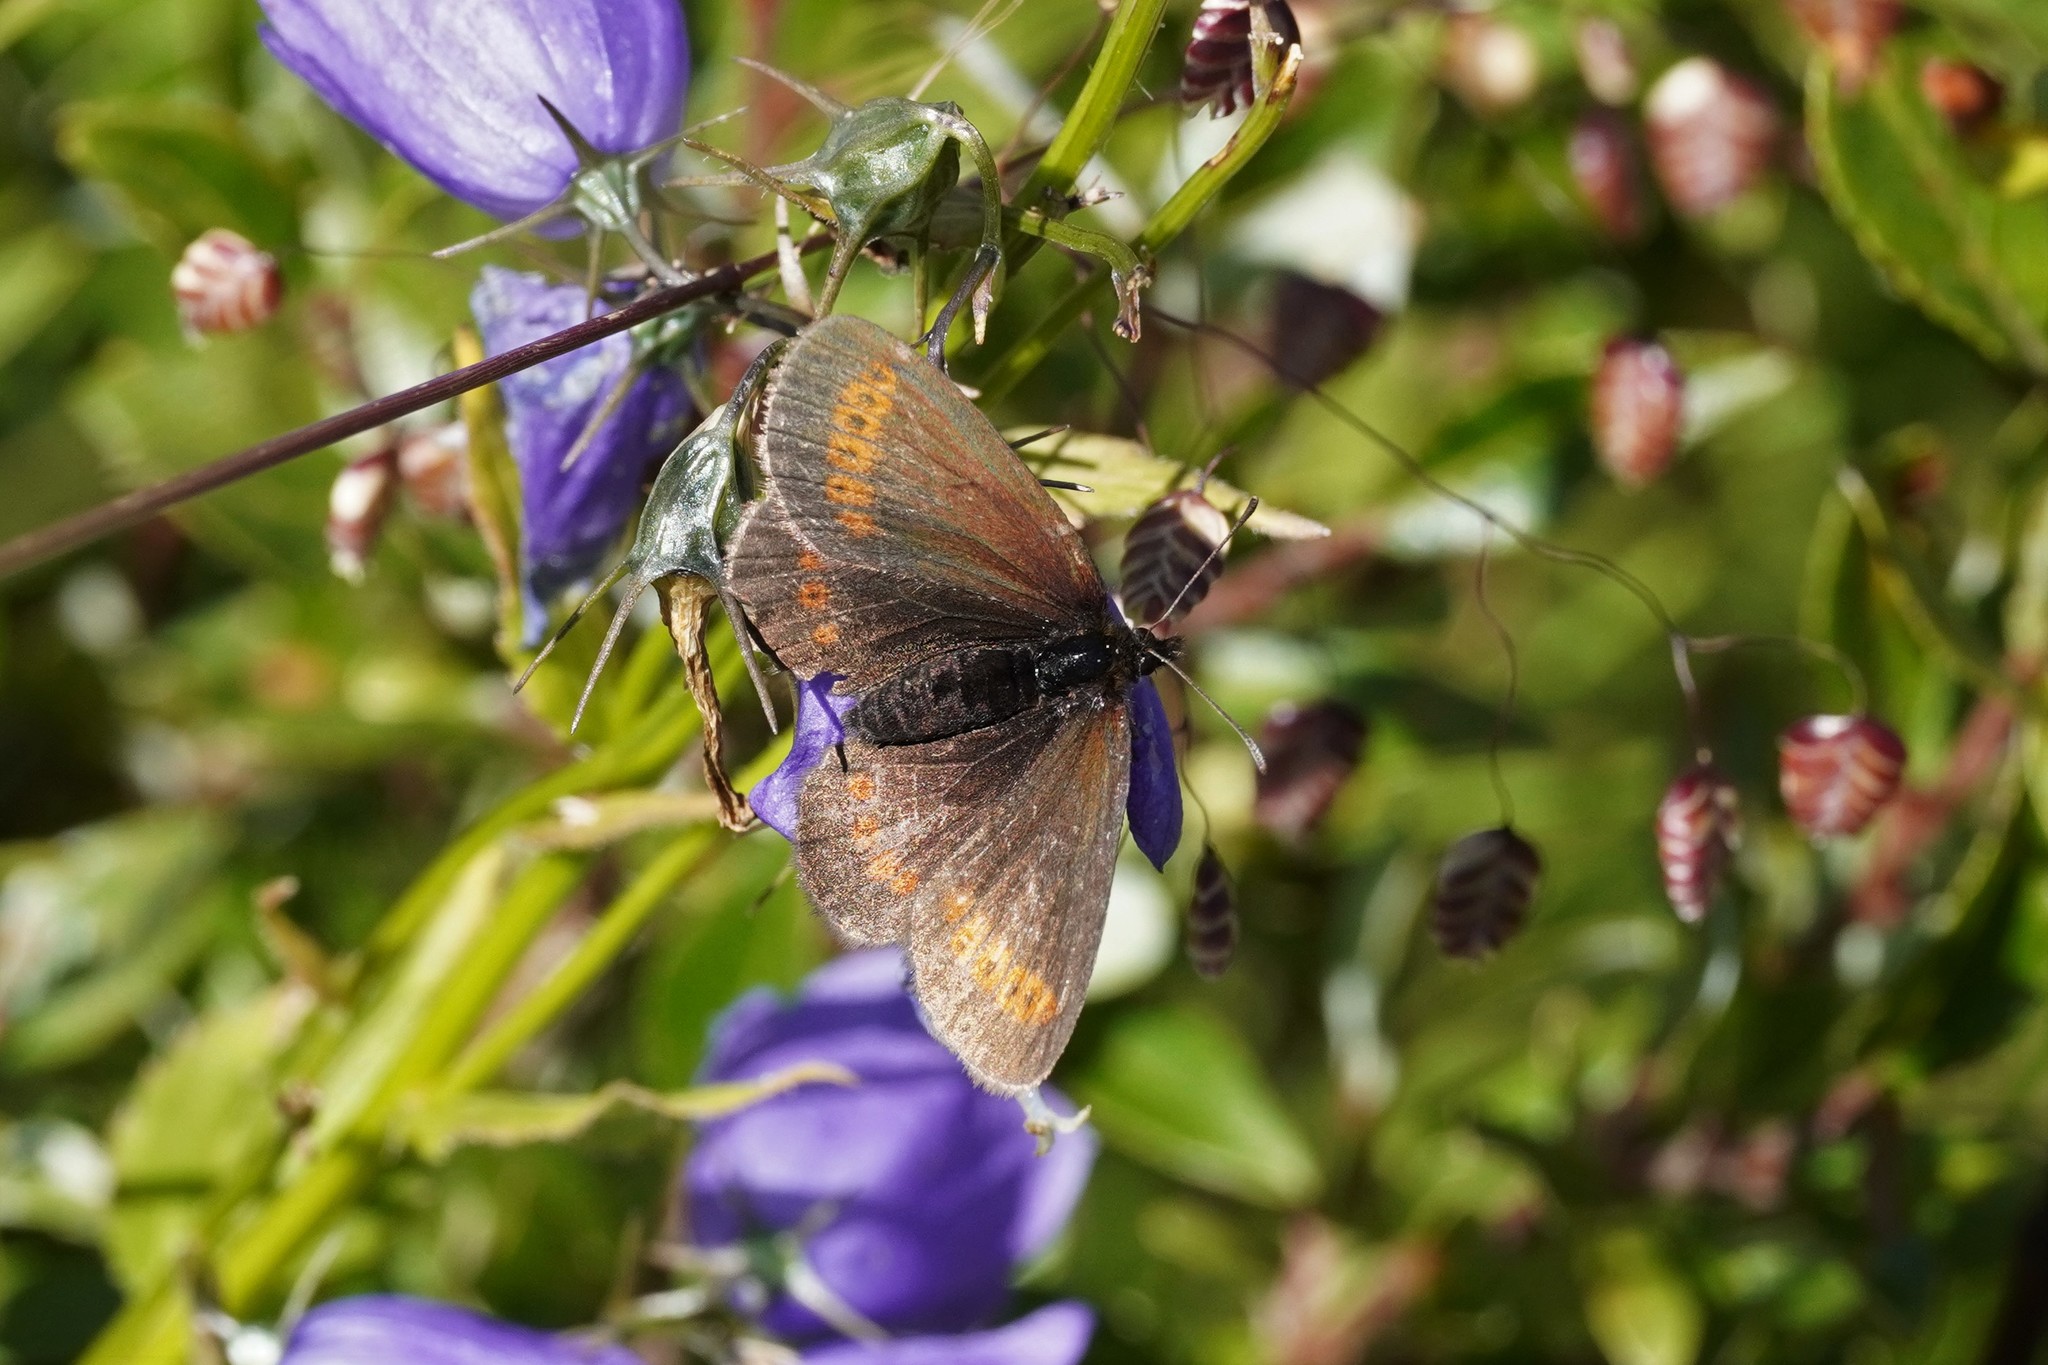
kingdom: Animalia
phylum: Arthropoda
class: Insecta
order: Lepidoptera
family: Nymphalidae
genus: Erebia
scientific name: Erebia
